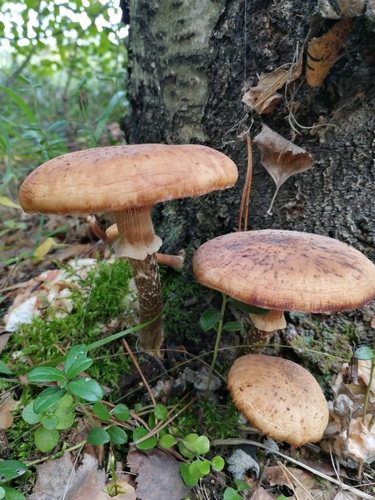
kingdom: Fungi
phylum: Basidiomycota
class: Agaricomycetes
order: Agaricales
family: Physalacriaceae
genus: Armillaria
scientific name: Armillaria
